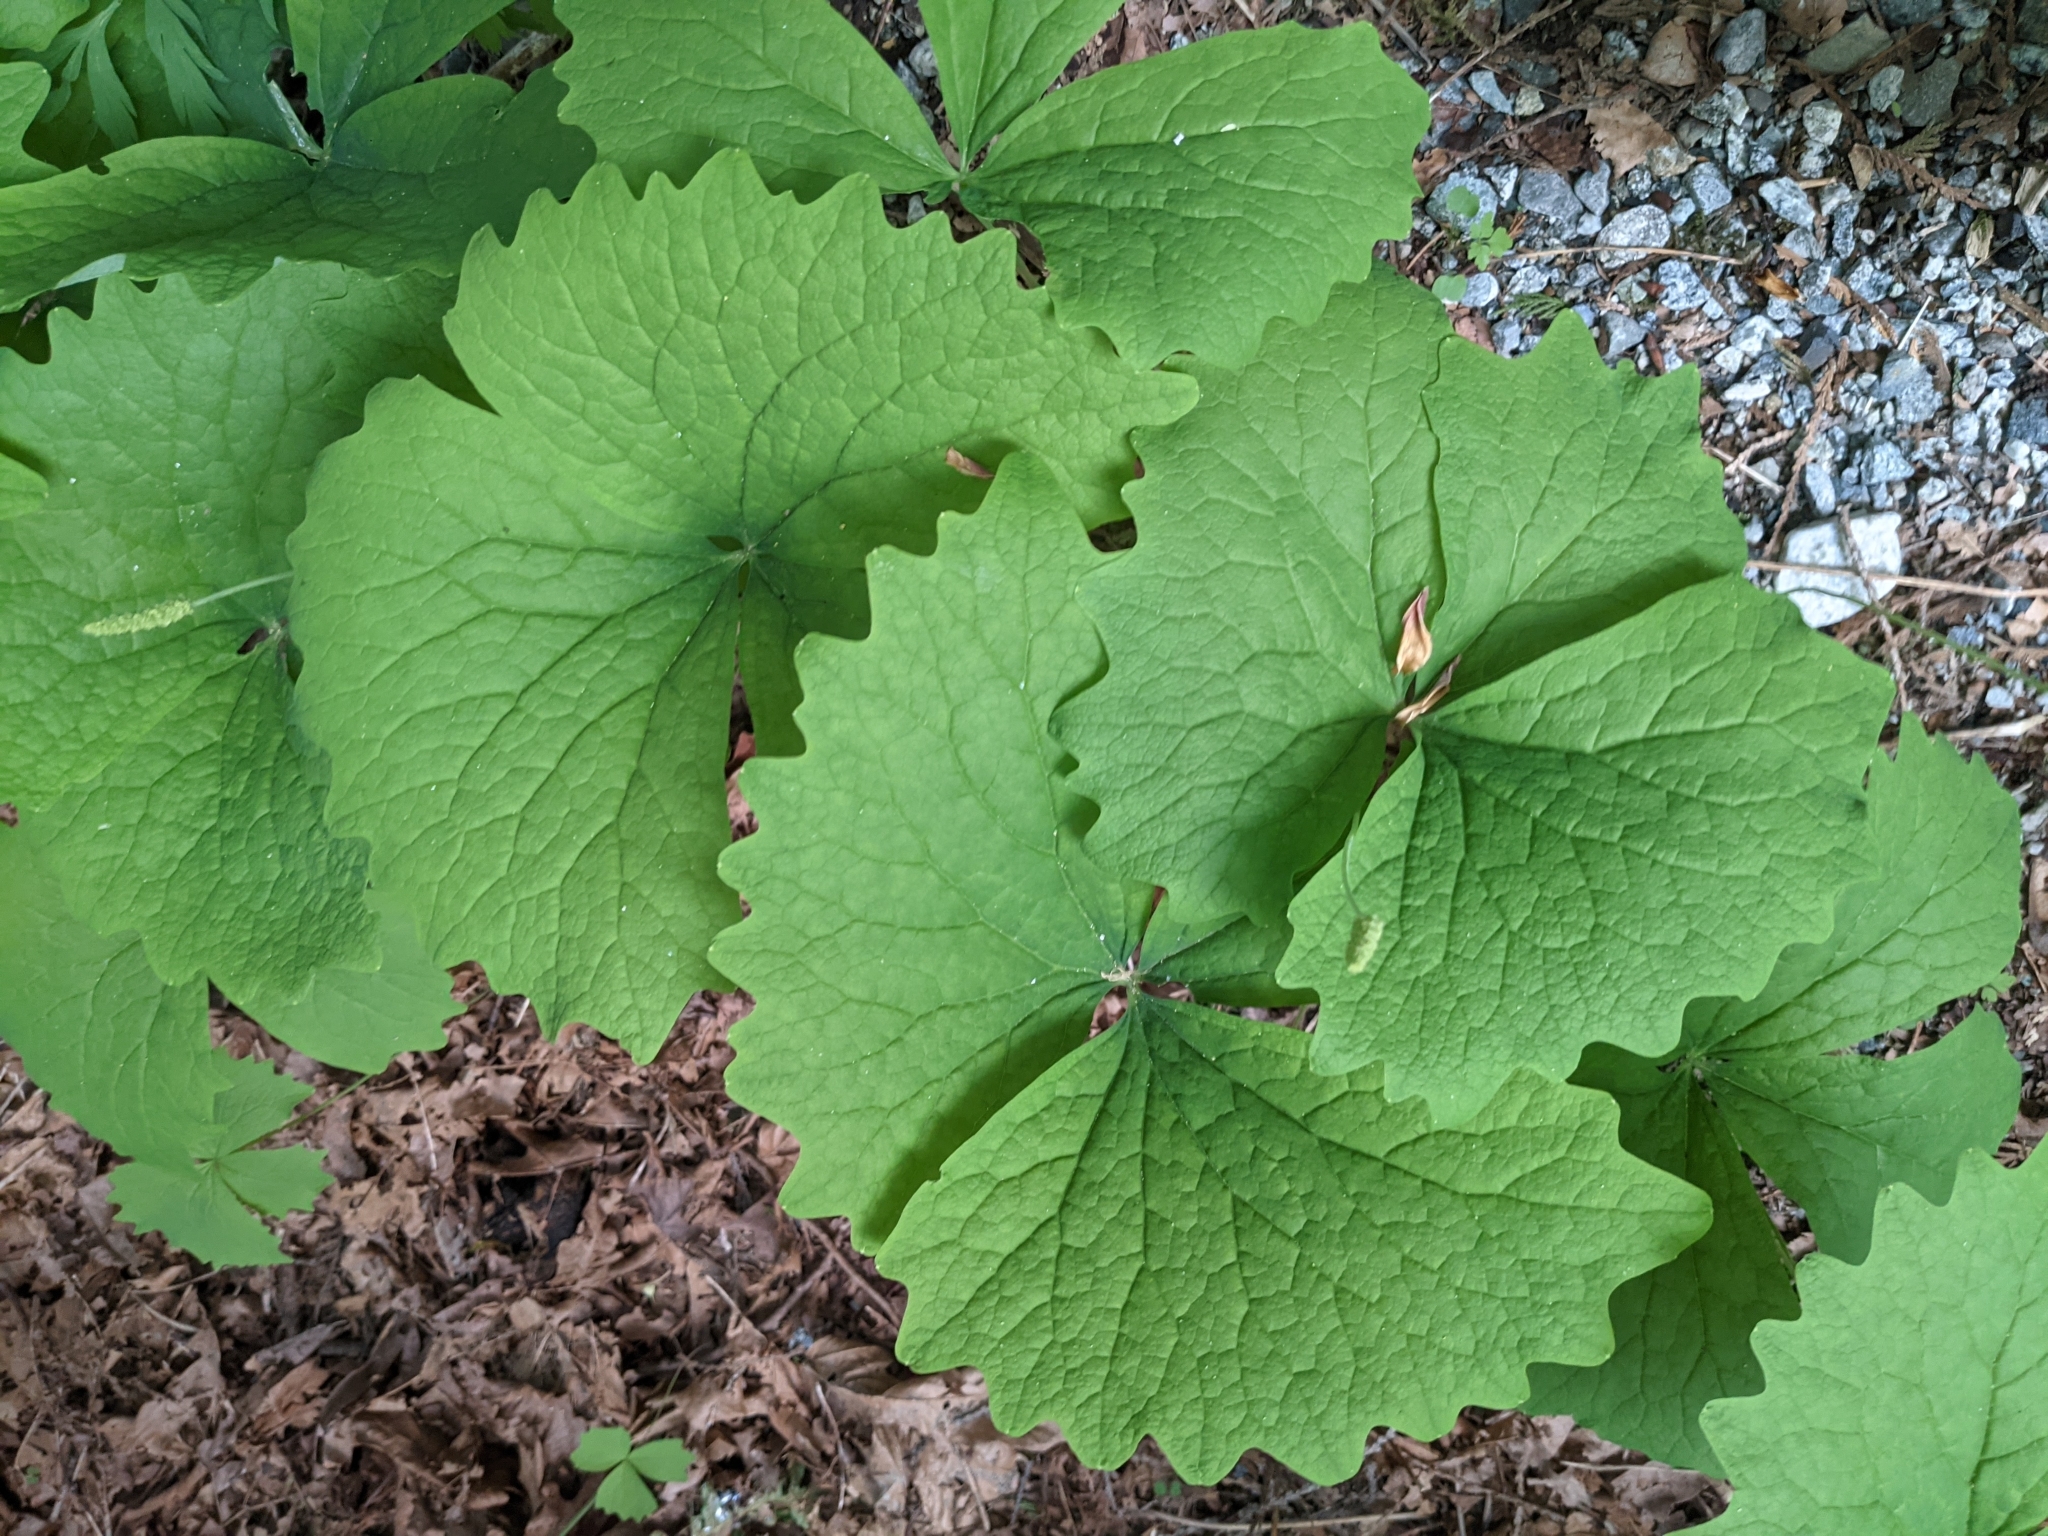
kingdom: Plantae
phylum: Tracheophyta
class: Magnoliopsida
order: Ranunculales
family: Berberidaceae
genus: Achlys
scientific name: Achlys triphylla
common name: Vanilla-leaf
